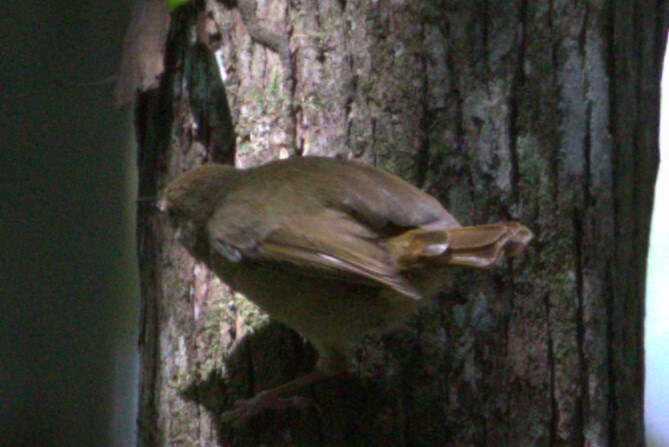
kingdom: Animalia
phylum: Chordata
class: Aves
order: Passeriformes
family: Acanthizidae
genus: Sericornis
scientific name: Sericornis magnirostra
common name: Large-billed scrubwren
